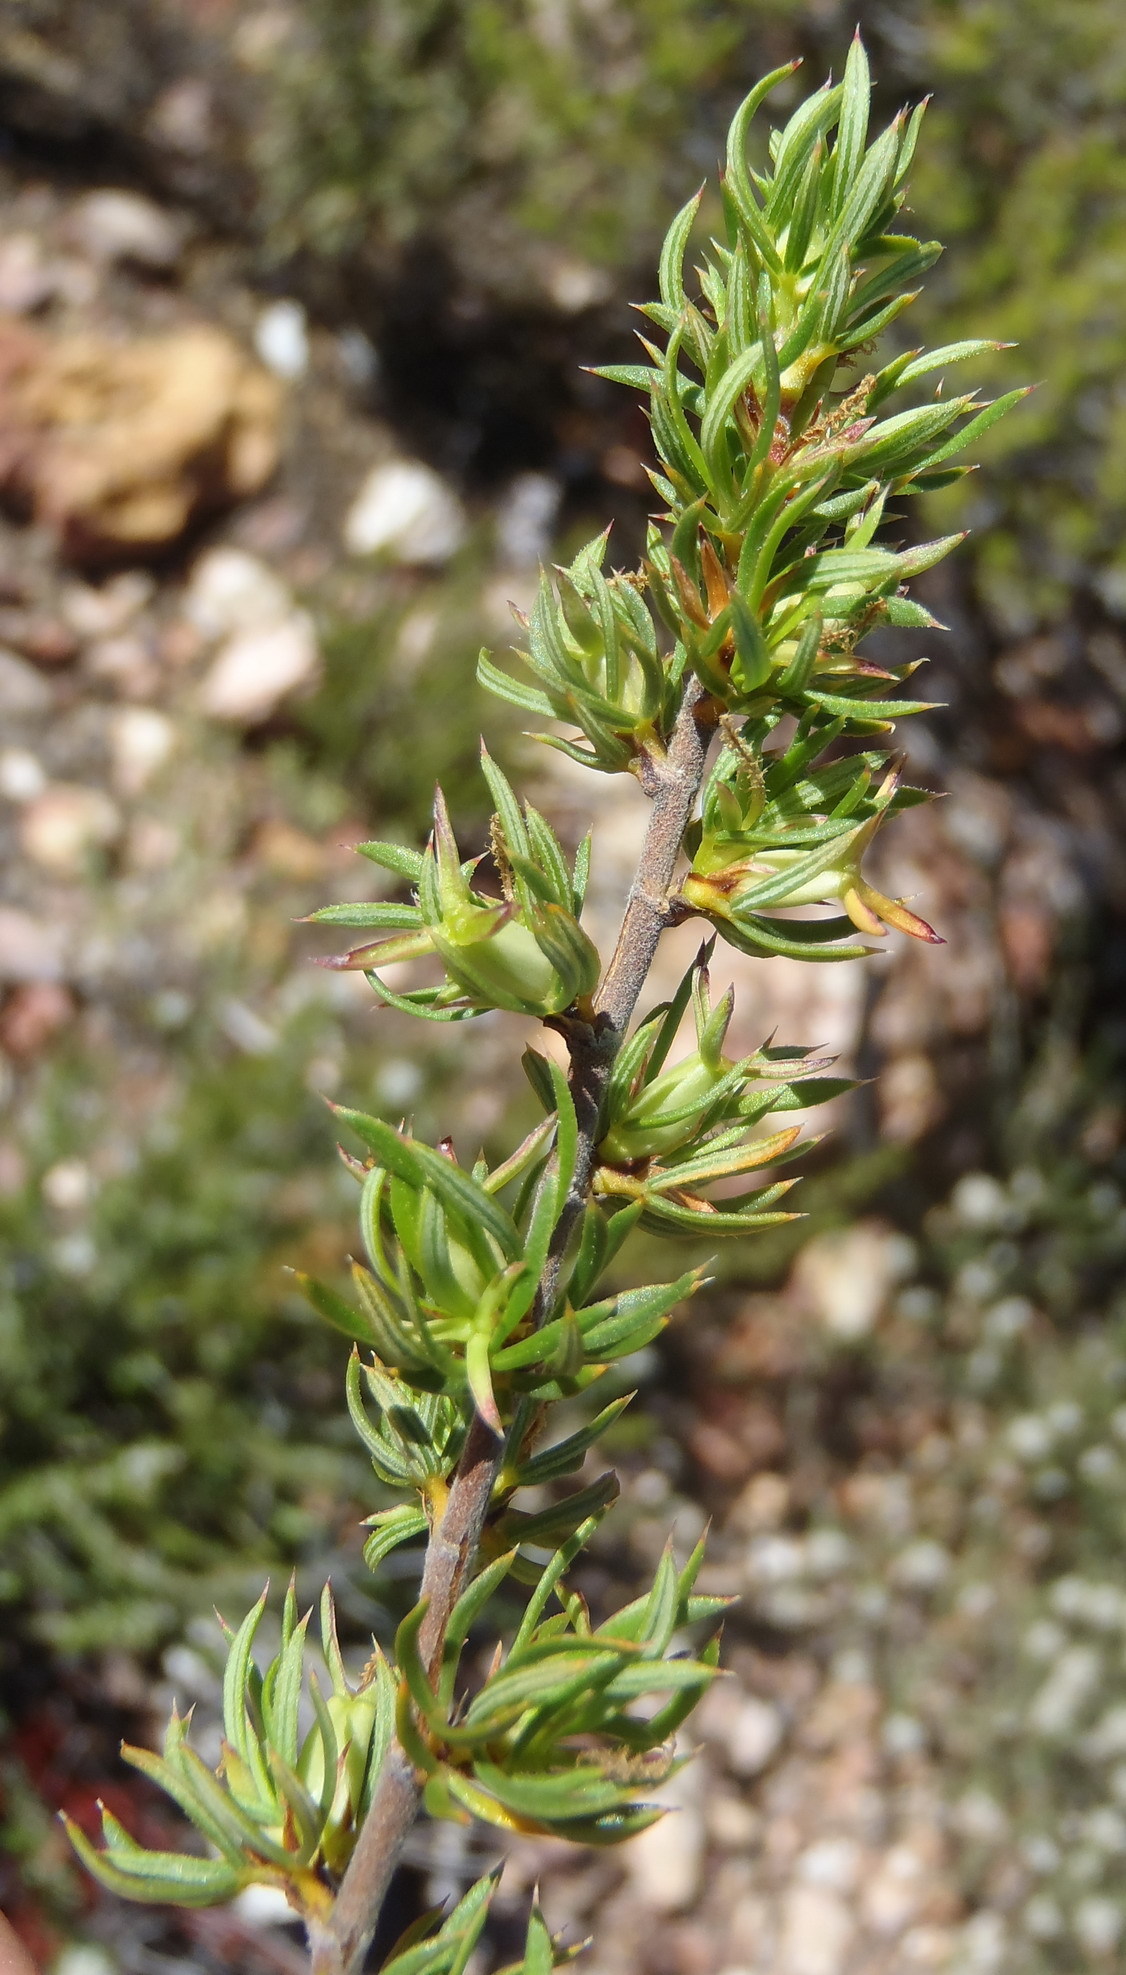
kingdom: Plantae
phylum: Tracheophyta
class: Magnoliopsida
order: Rosales
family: Rosaceae
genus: Cliffortia
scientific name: Cliffortia arcuata
